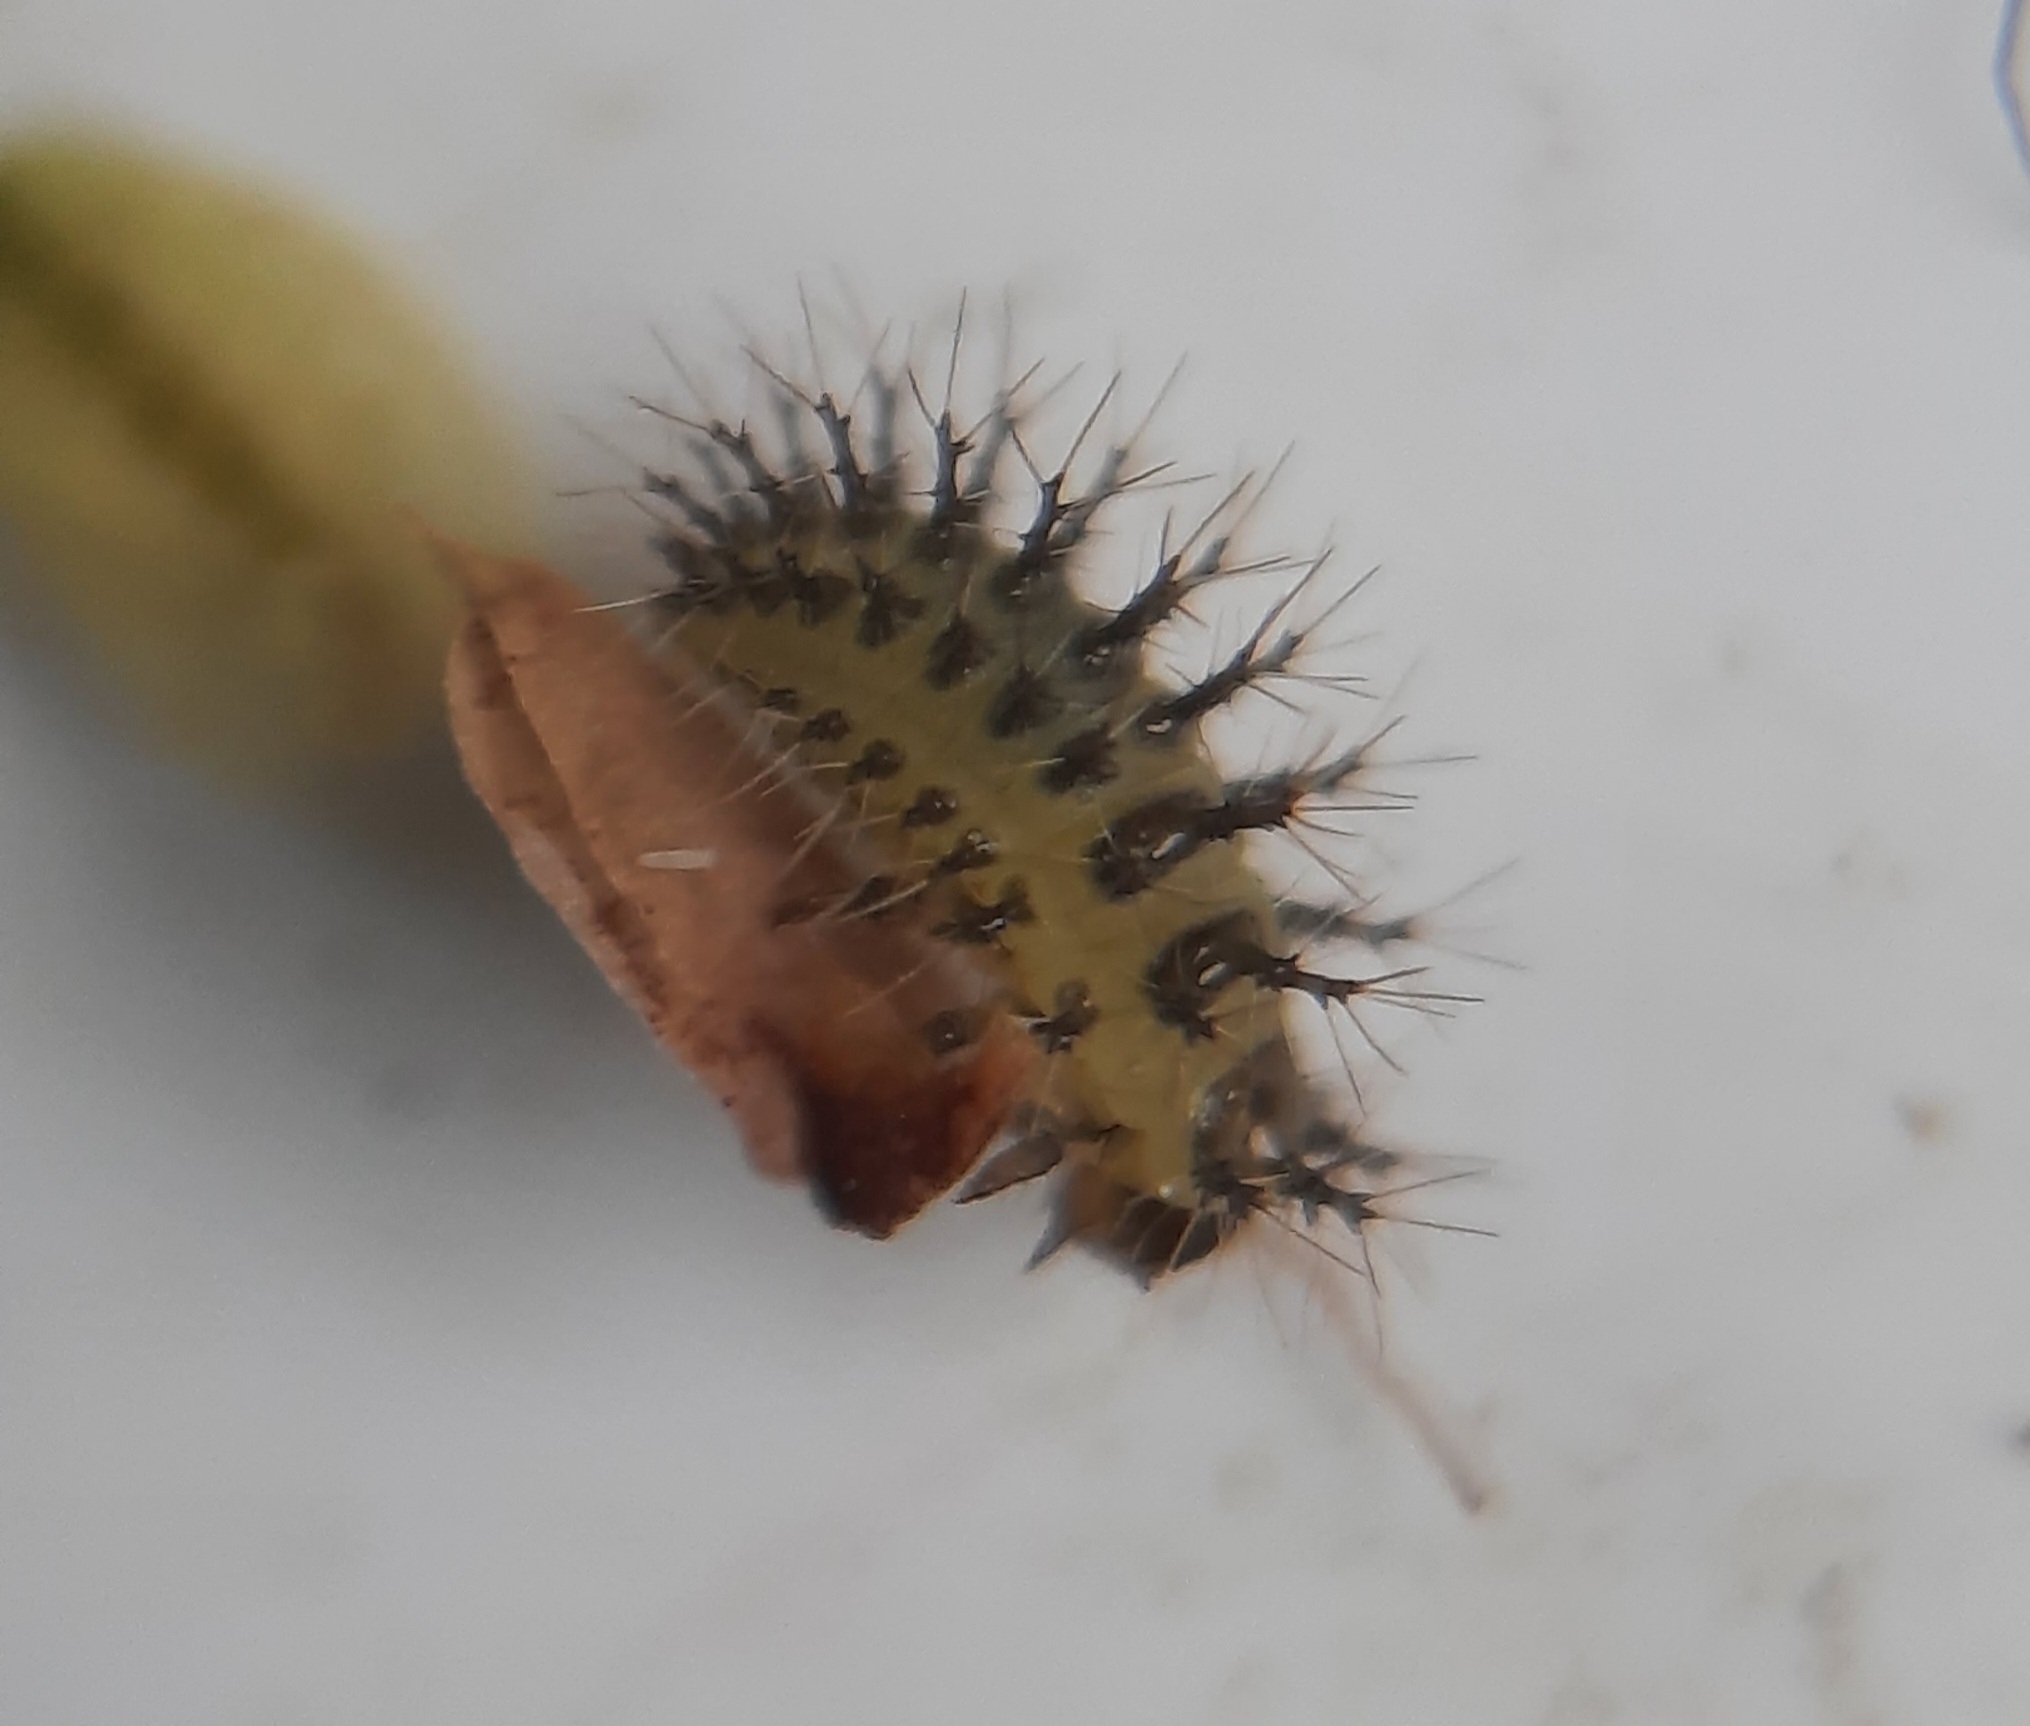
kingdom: Animalia
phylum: Arthropoda
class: Insecta
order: Coleoptera
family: Coccinellidae
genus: Subcoccinella
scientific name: Subcoccinella vigintiquatuorpunctata
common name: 24-spot ladybird
